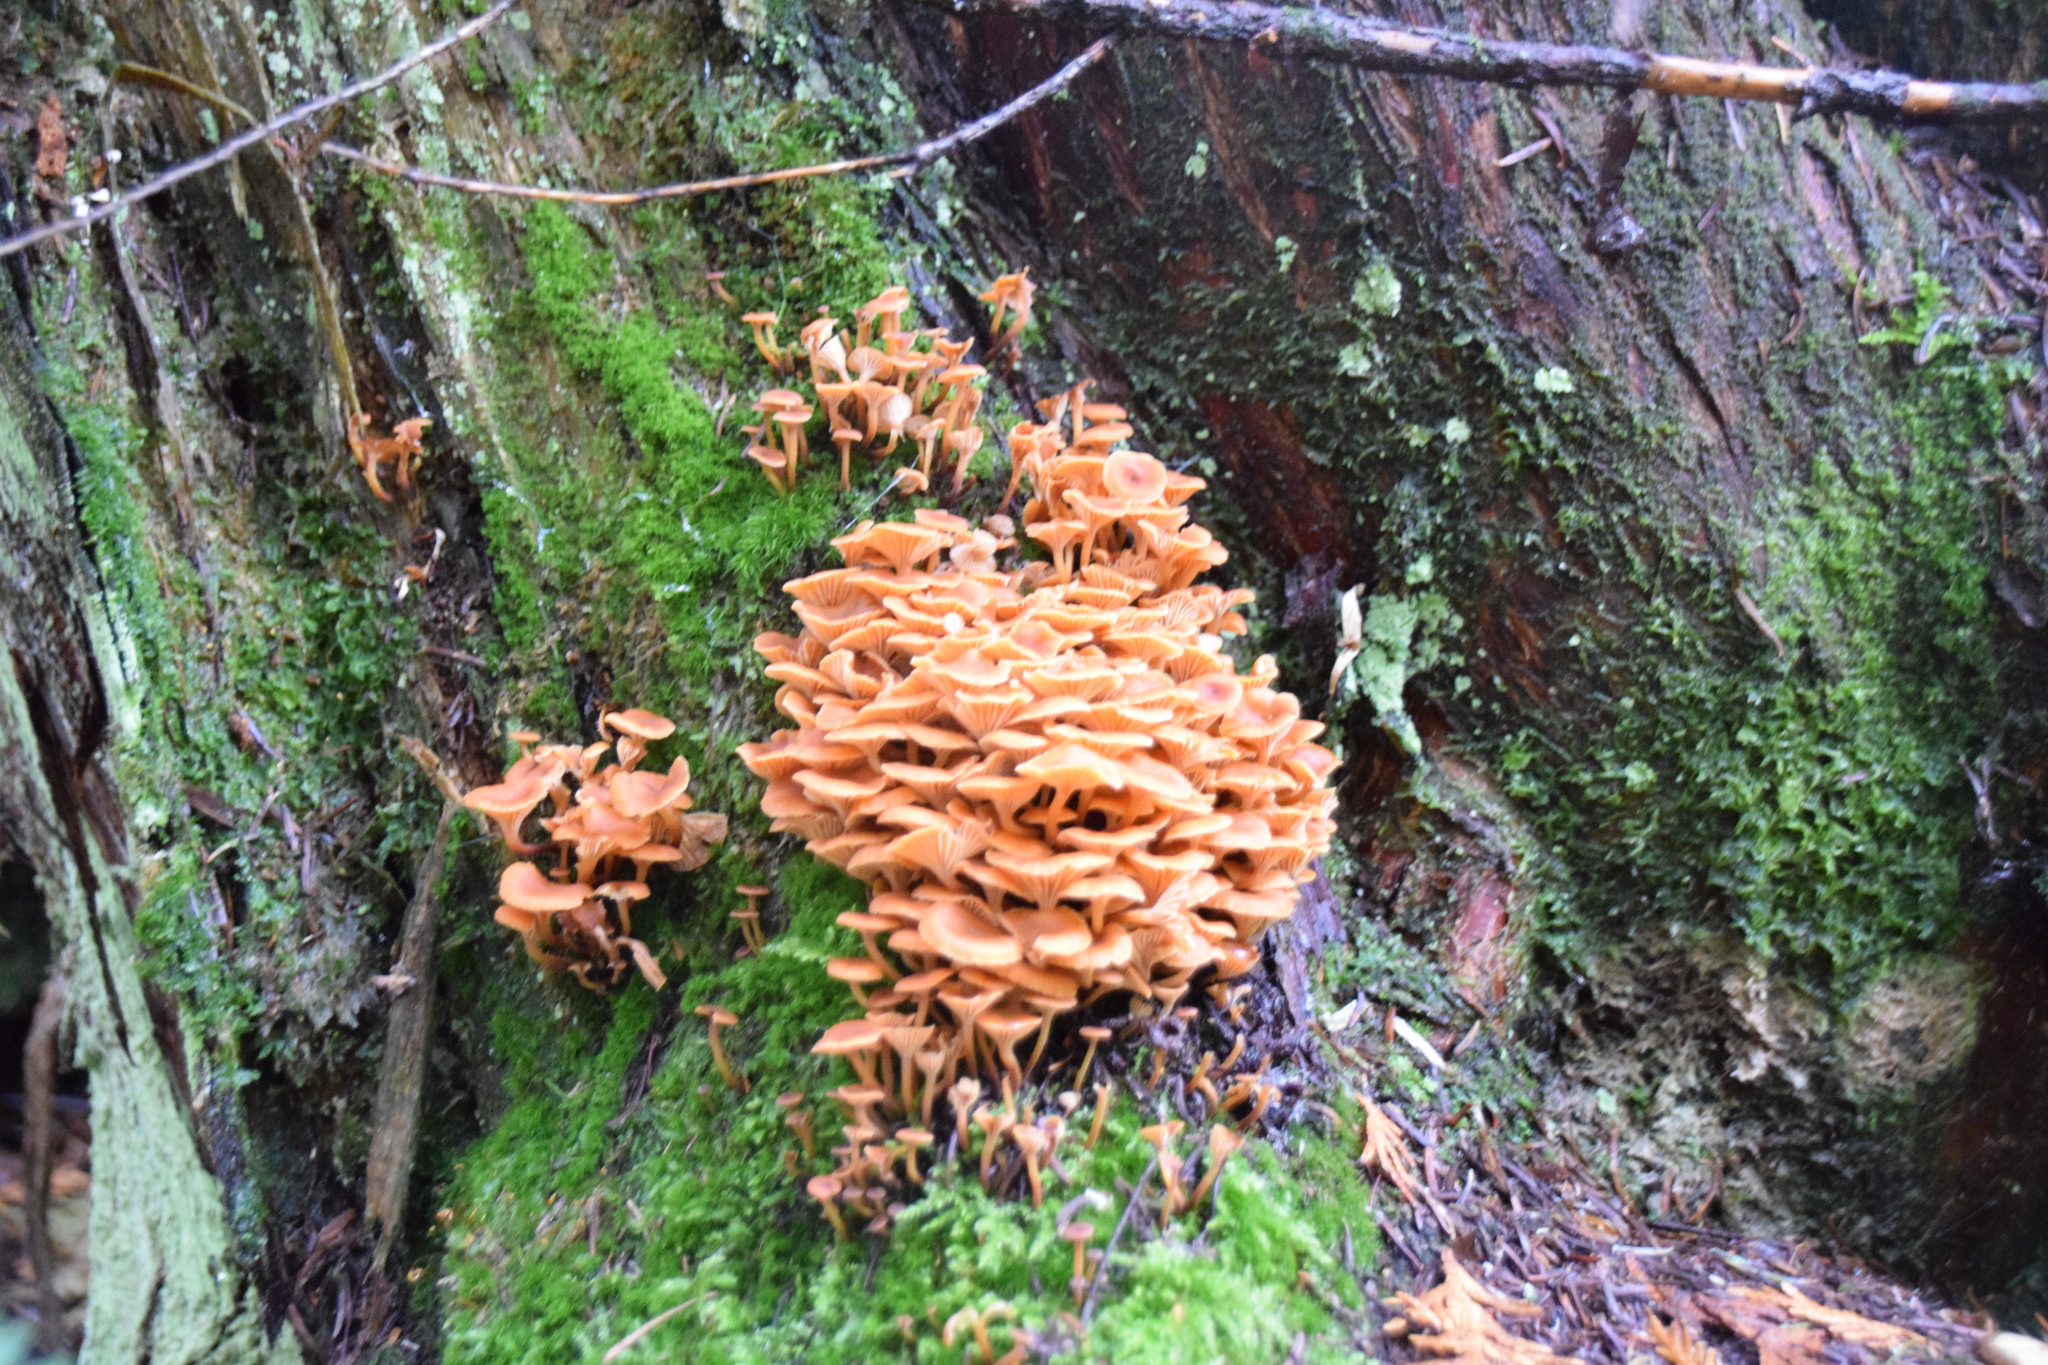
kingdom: Fungi
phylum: Basidiomycota
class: Agaricomycetes
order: Agaricales
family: Mycenaceae
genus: Xeromphalina
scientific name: Xeromphalina campanella
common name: Pinewood gingertail
